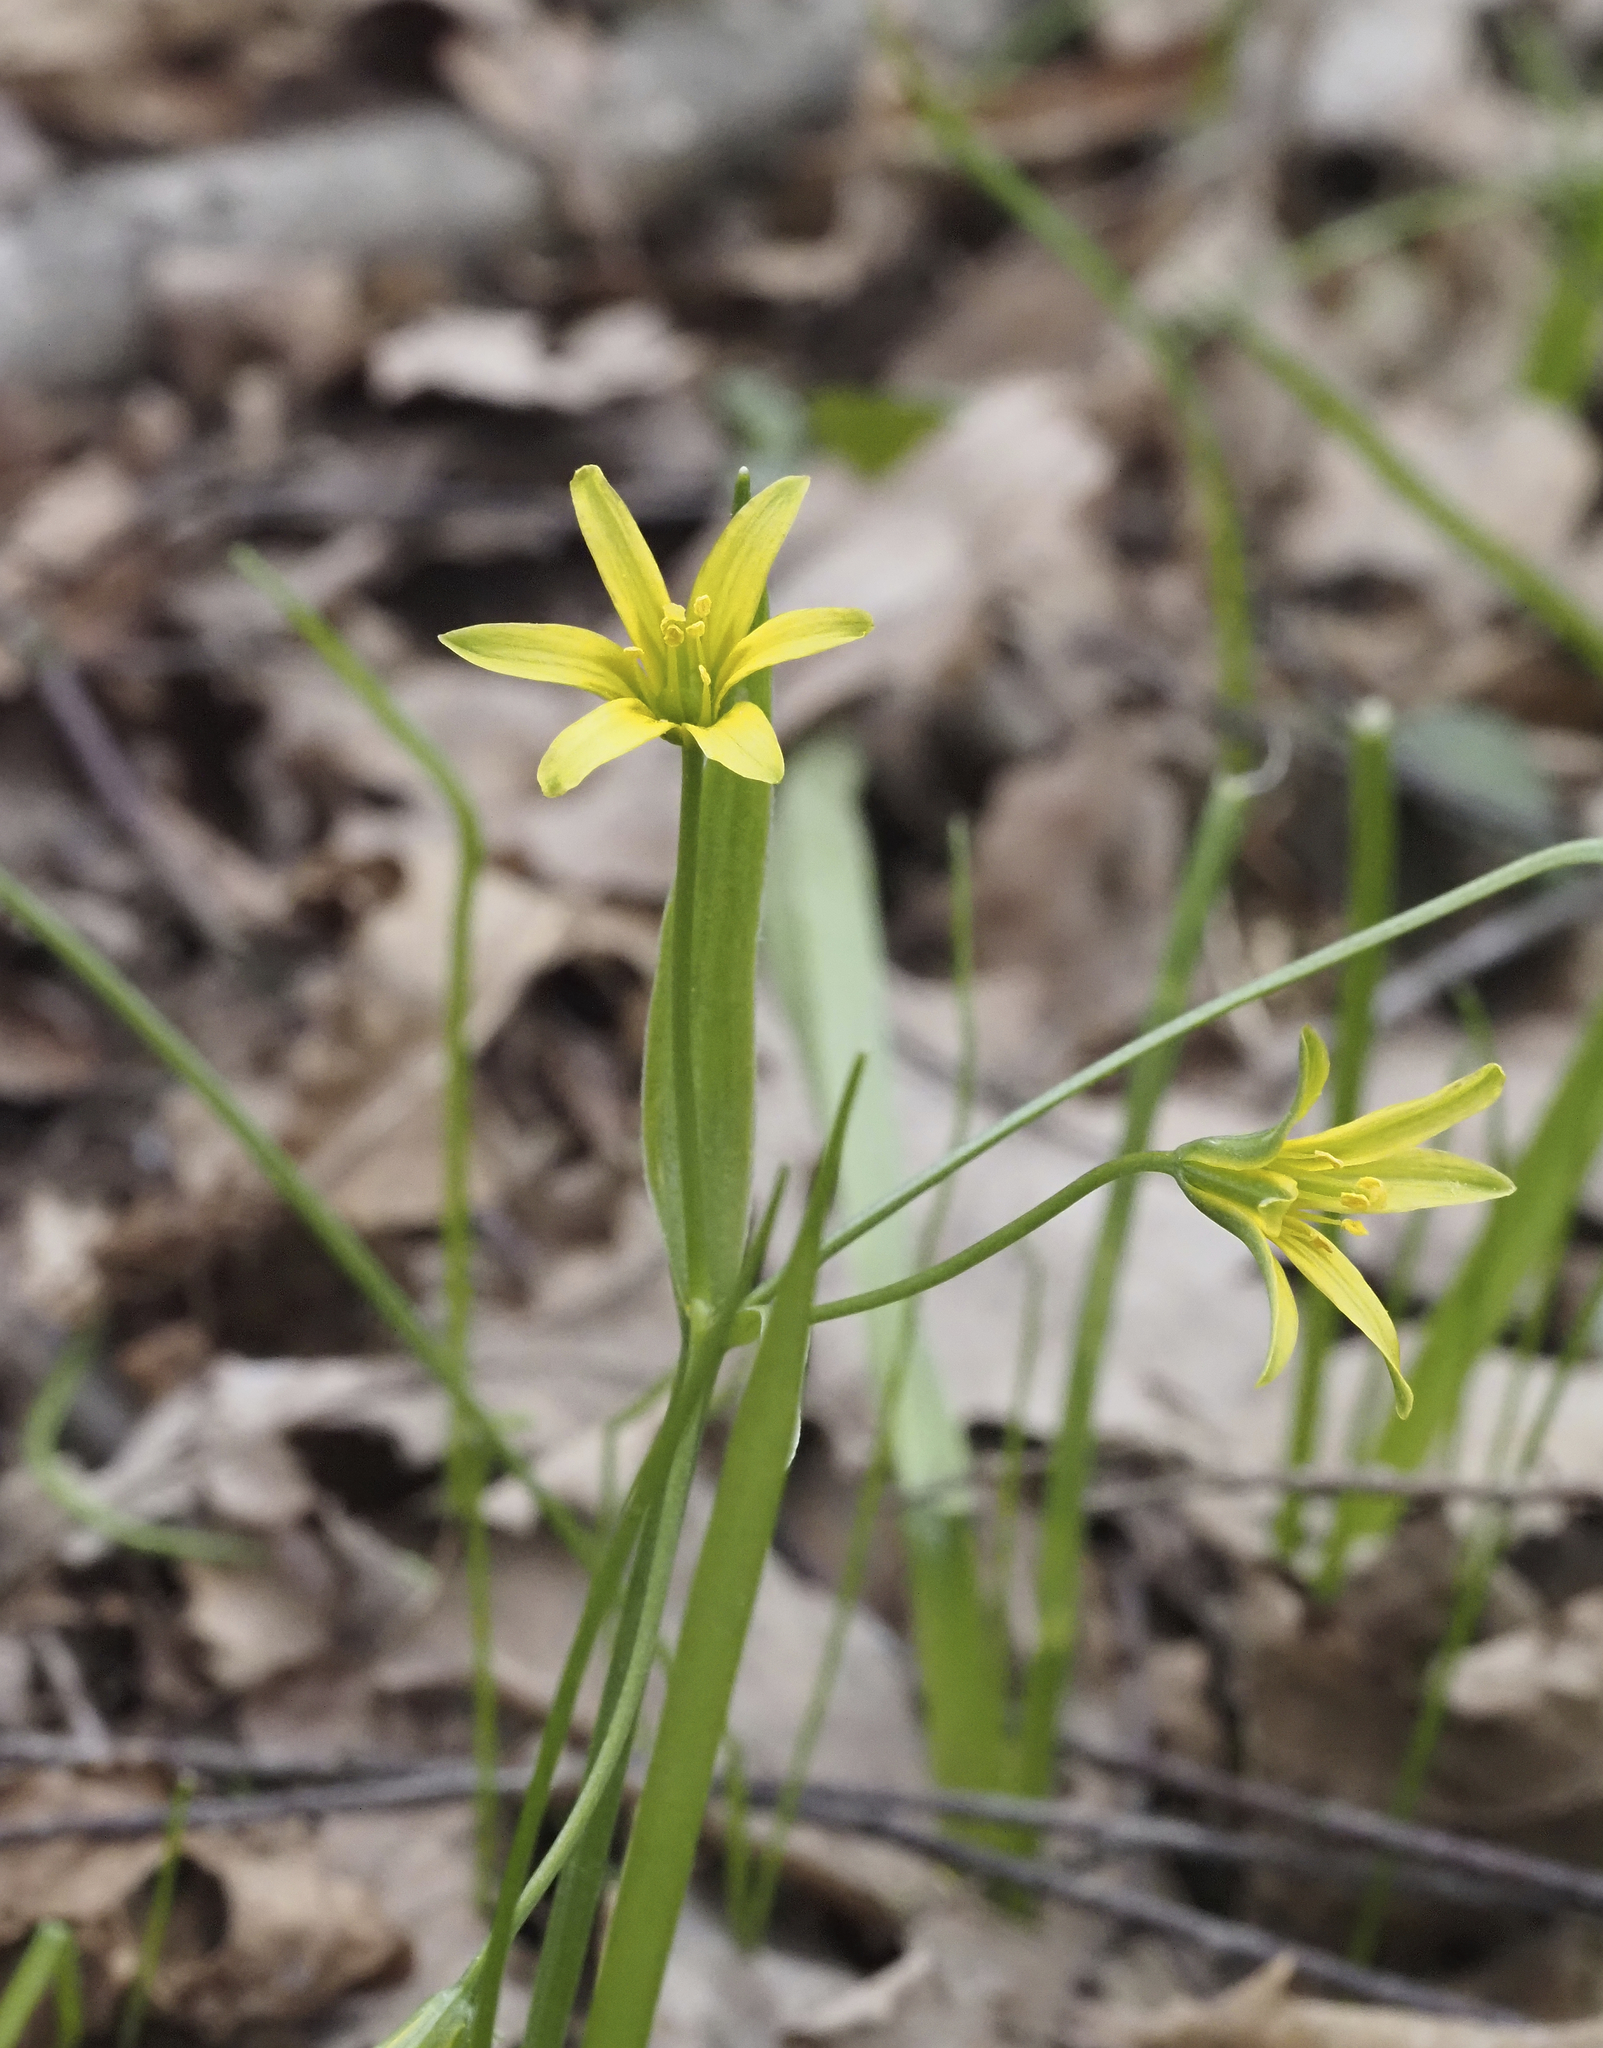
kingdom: Plantae
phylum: Tracheophyta
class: Liliopsida
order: Liliales
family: Liliaceae
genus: Gagea
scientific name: Gagea lutea
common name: Yellow star-of-bethlehem
